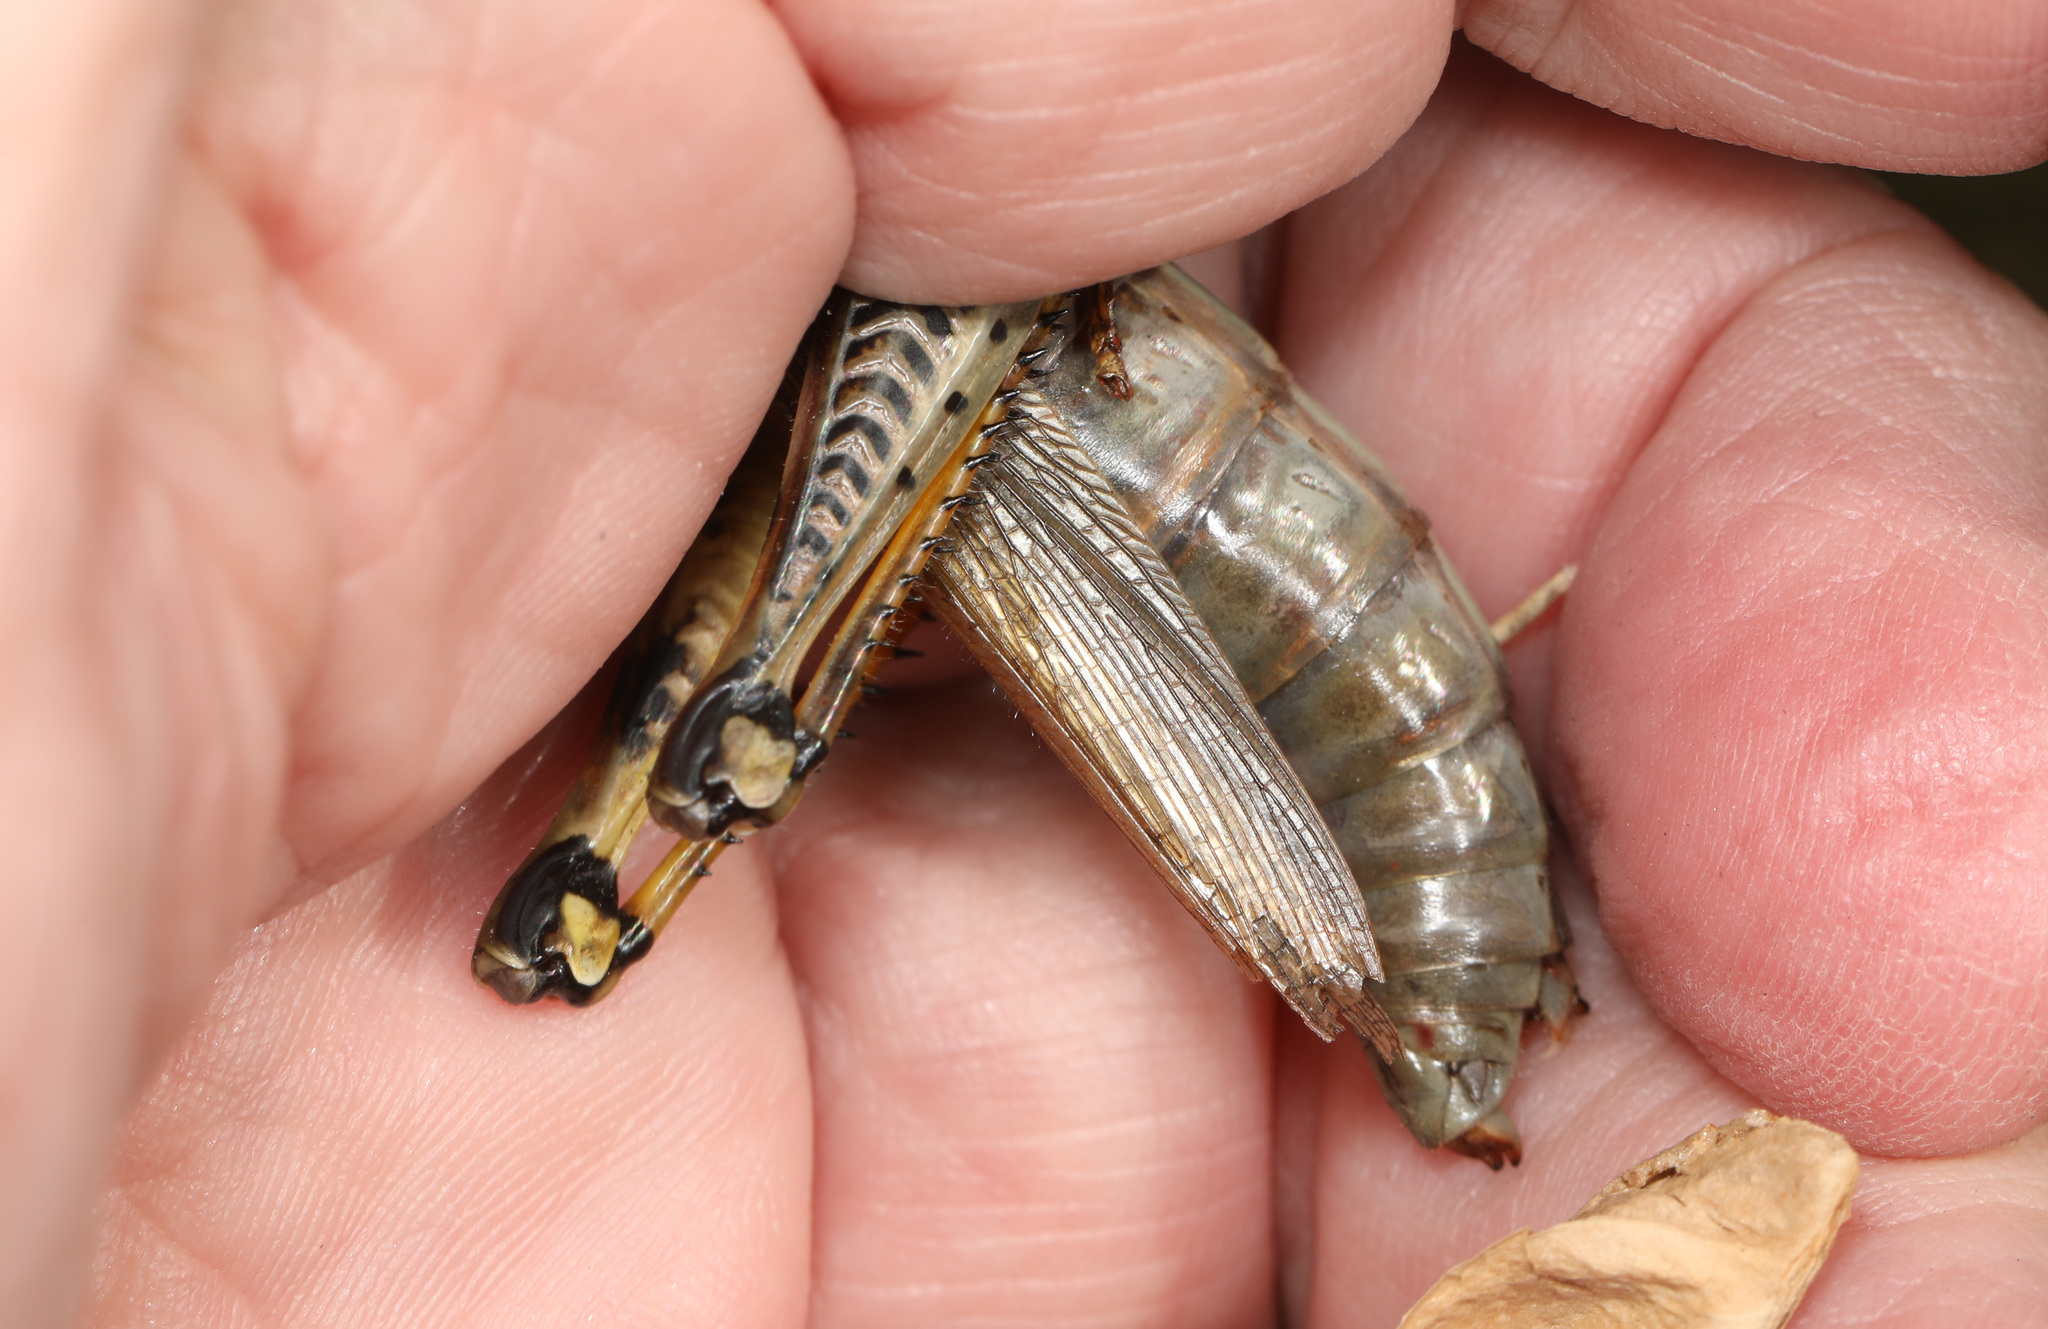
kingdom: Animalia
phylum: Arthropoda
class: Insecta
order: Orthoptera
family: Acrididae
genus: Melanoplus
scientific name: Melanoplus differentialis
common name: Differential grasshopper
